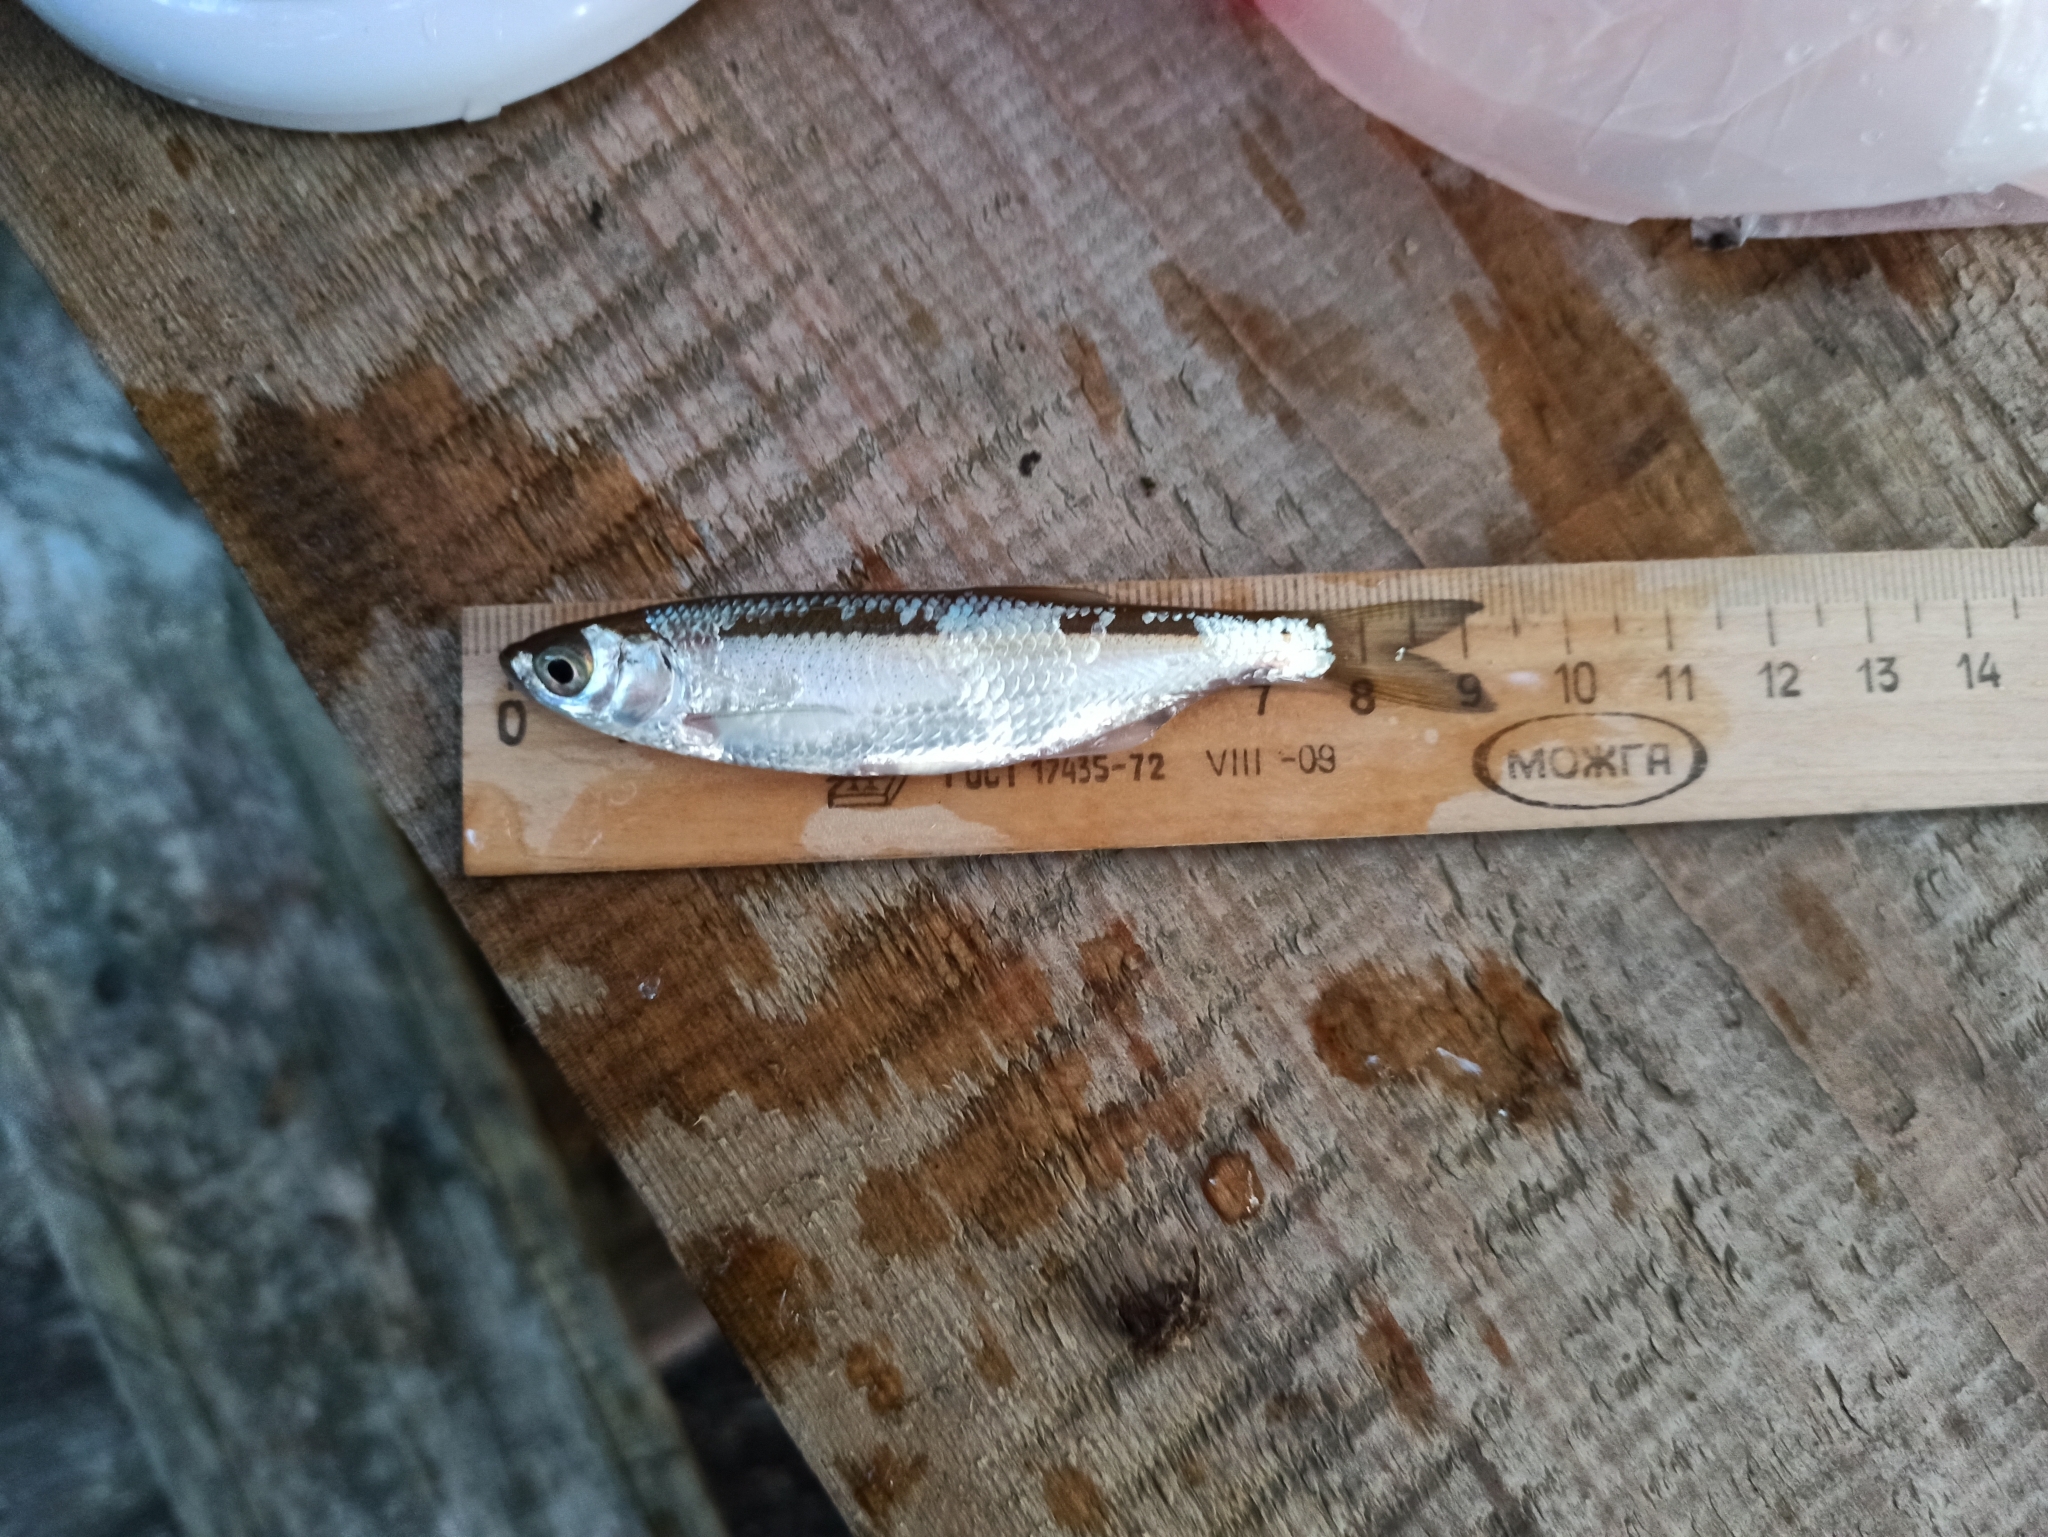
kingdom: Animalia
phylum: Chordata
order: Cypriniformes
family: Cyprinidae
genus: Alburnus
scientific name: Alburnus alburnus
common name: Bleak
